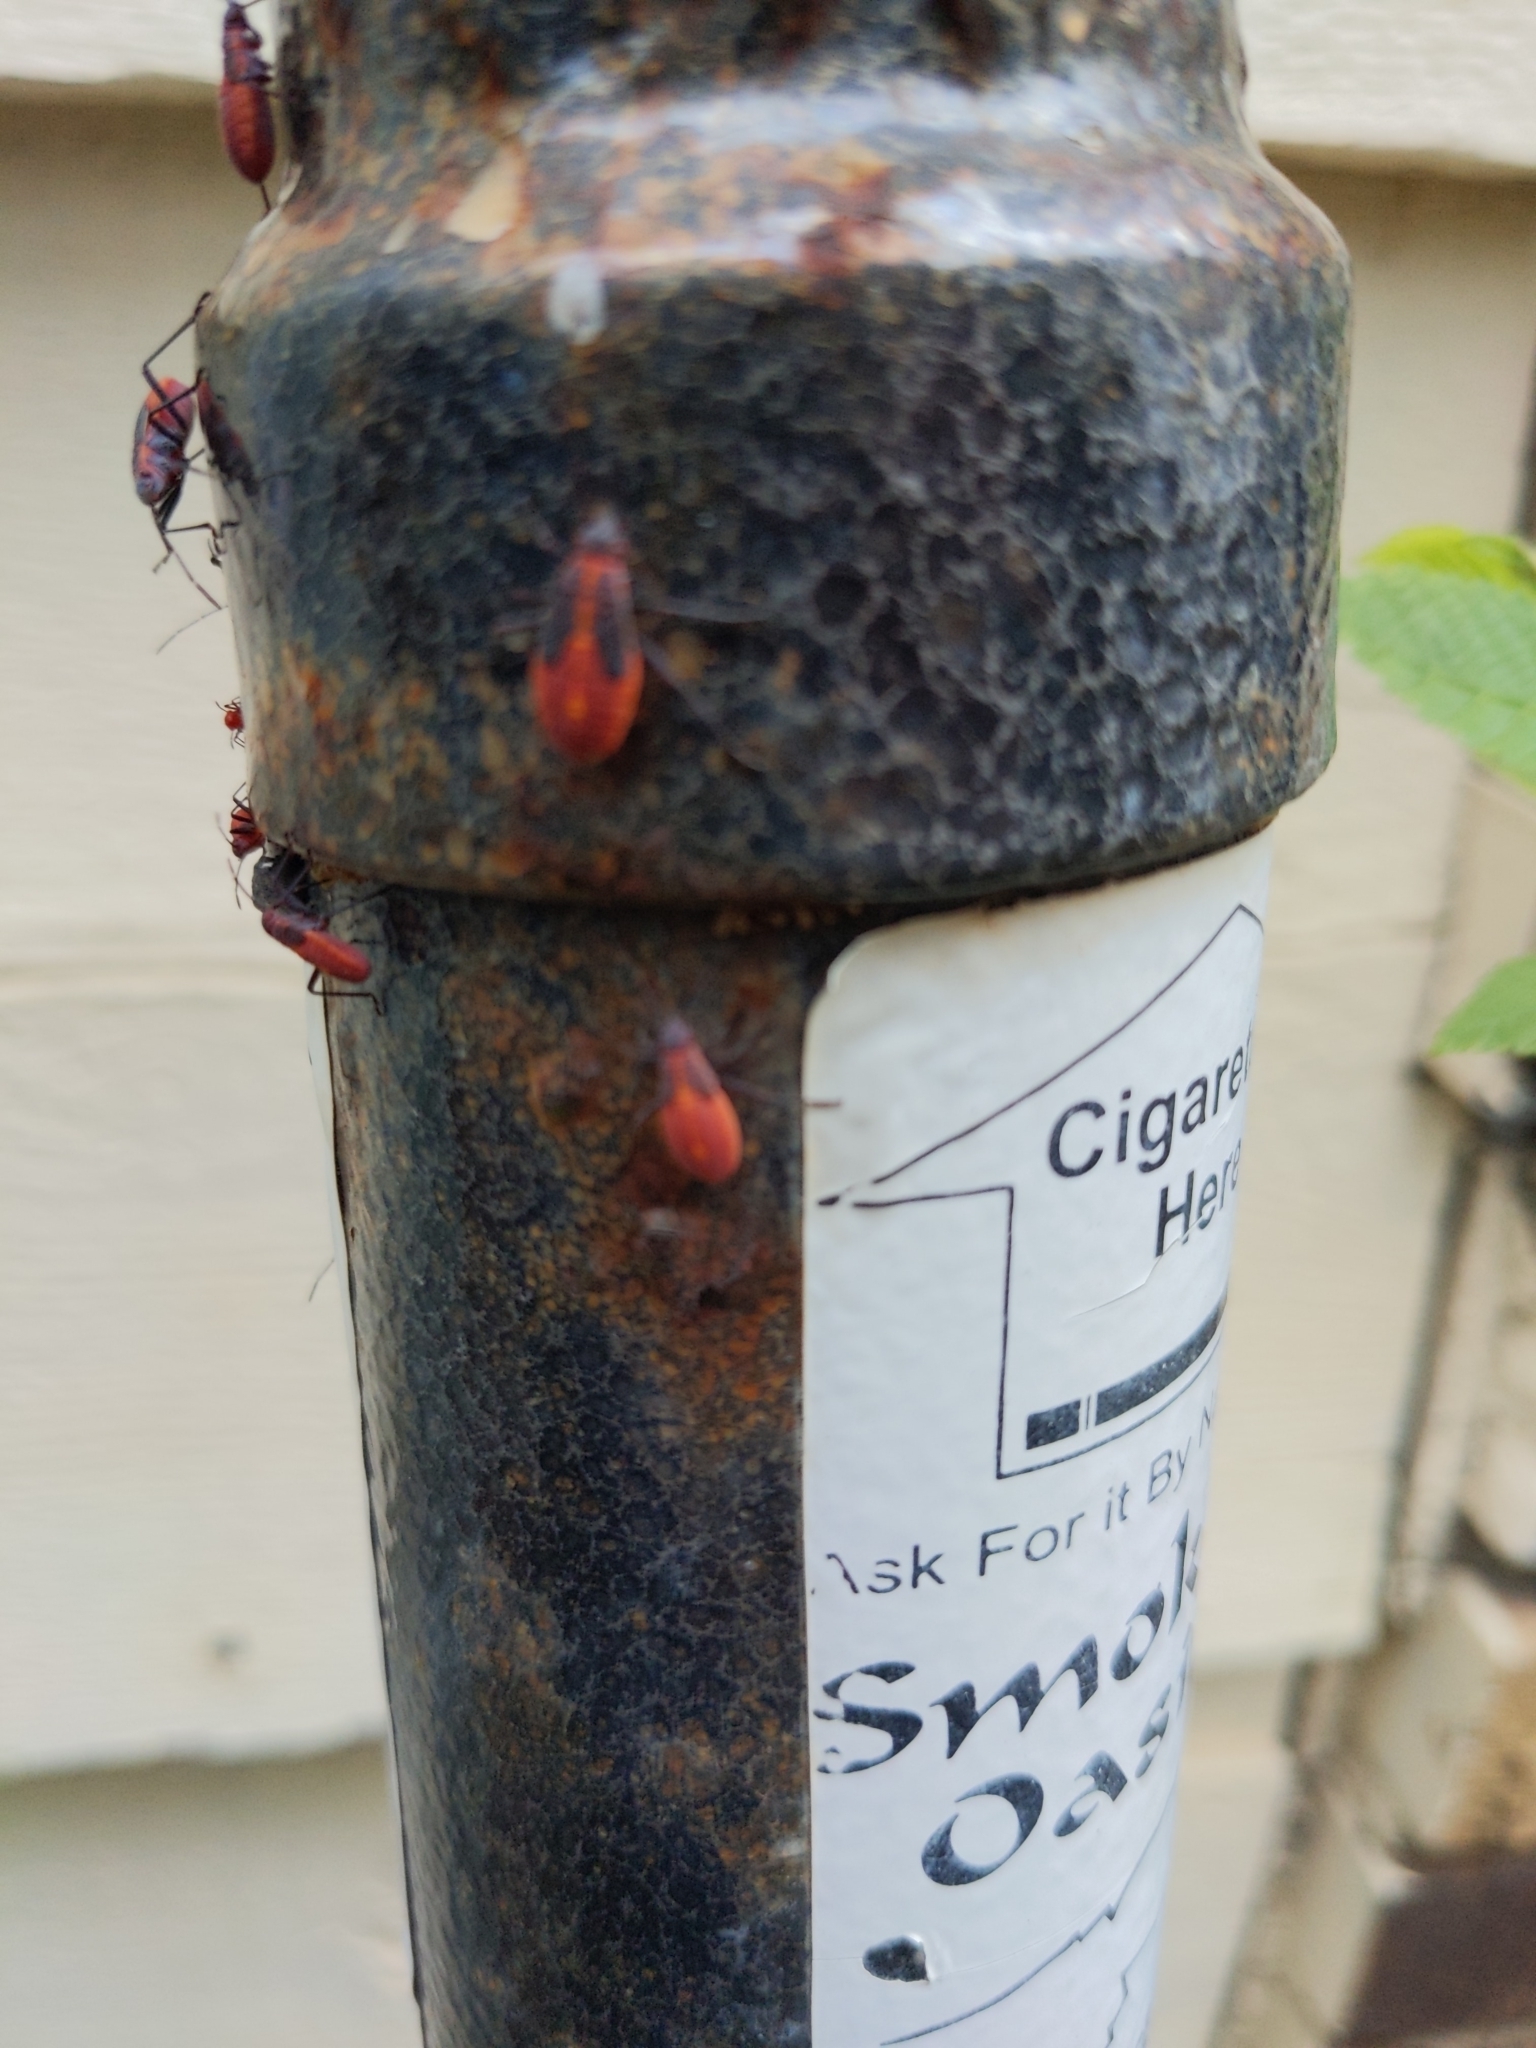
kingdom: Animalia
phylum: Arthropoda
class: Insecta
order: Hemiptera
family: Rhopalidae
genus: Boisea
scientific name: Boisea trivittata
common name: Boxelder bug
